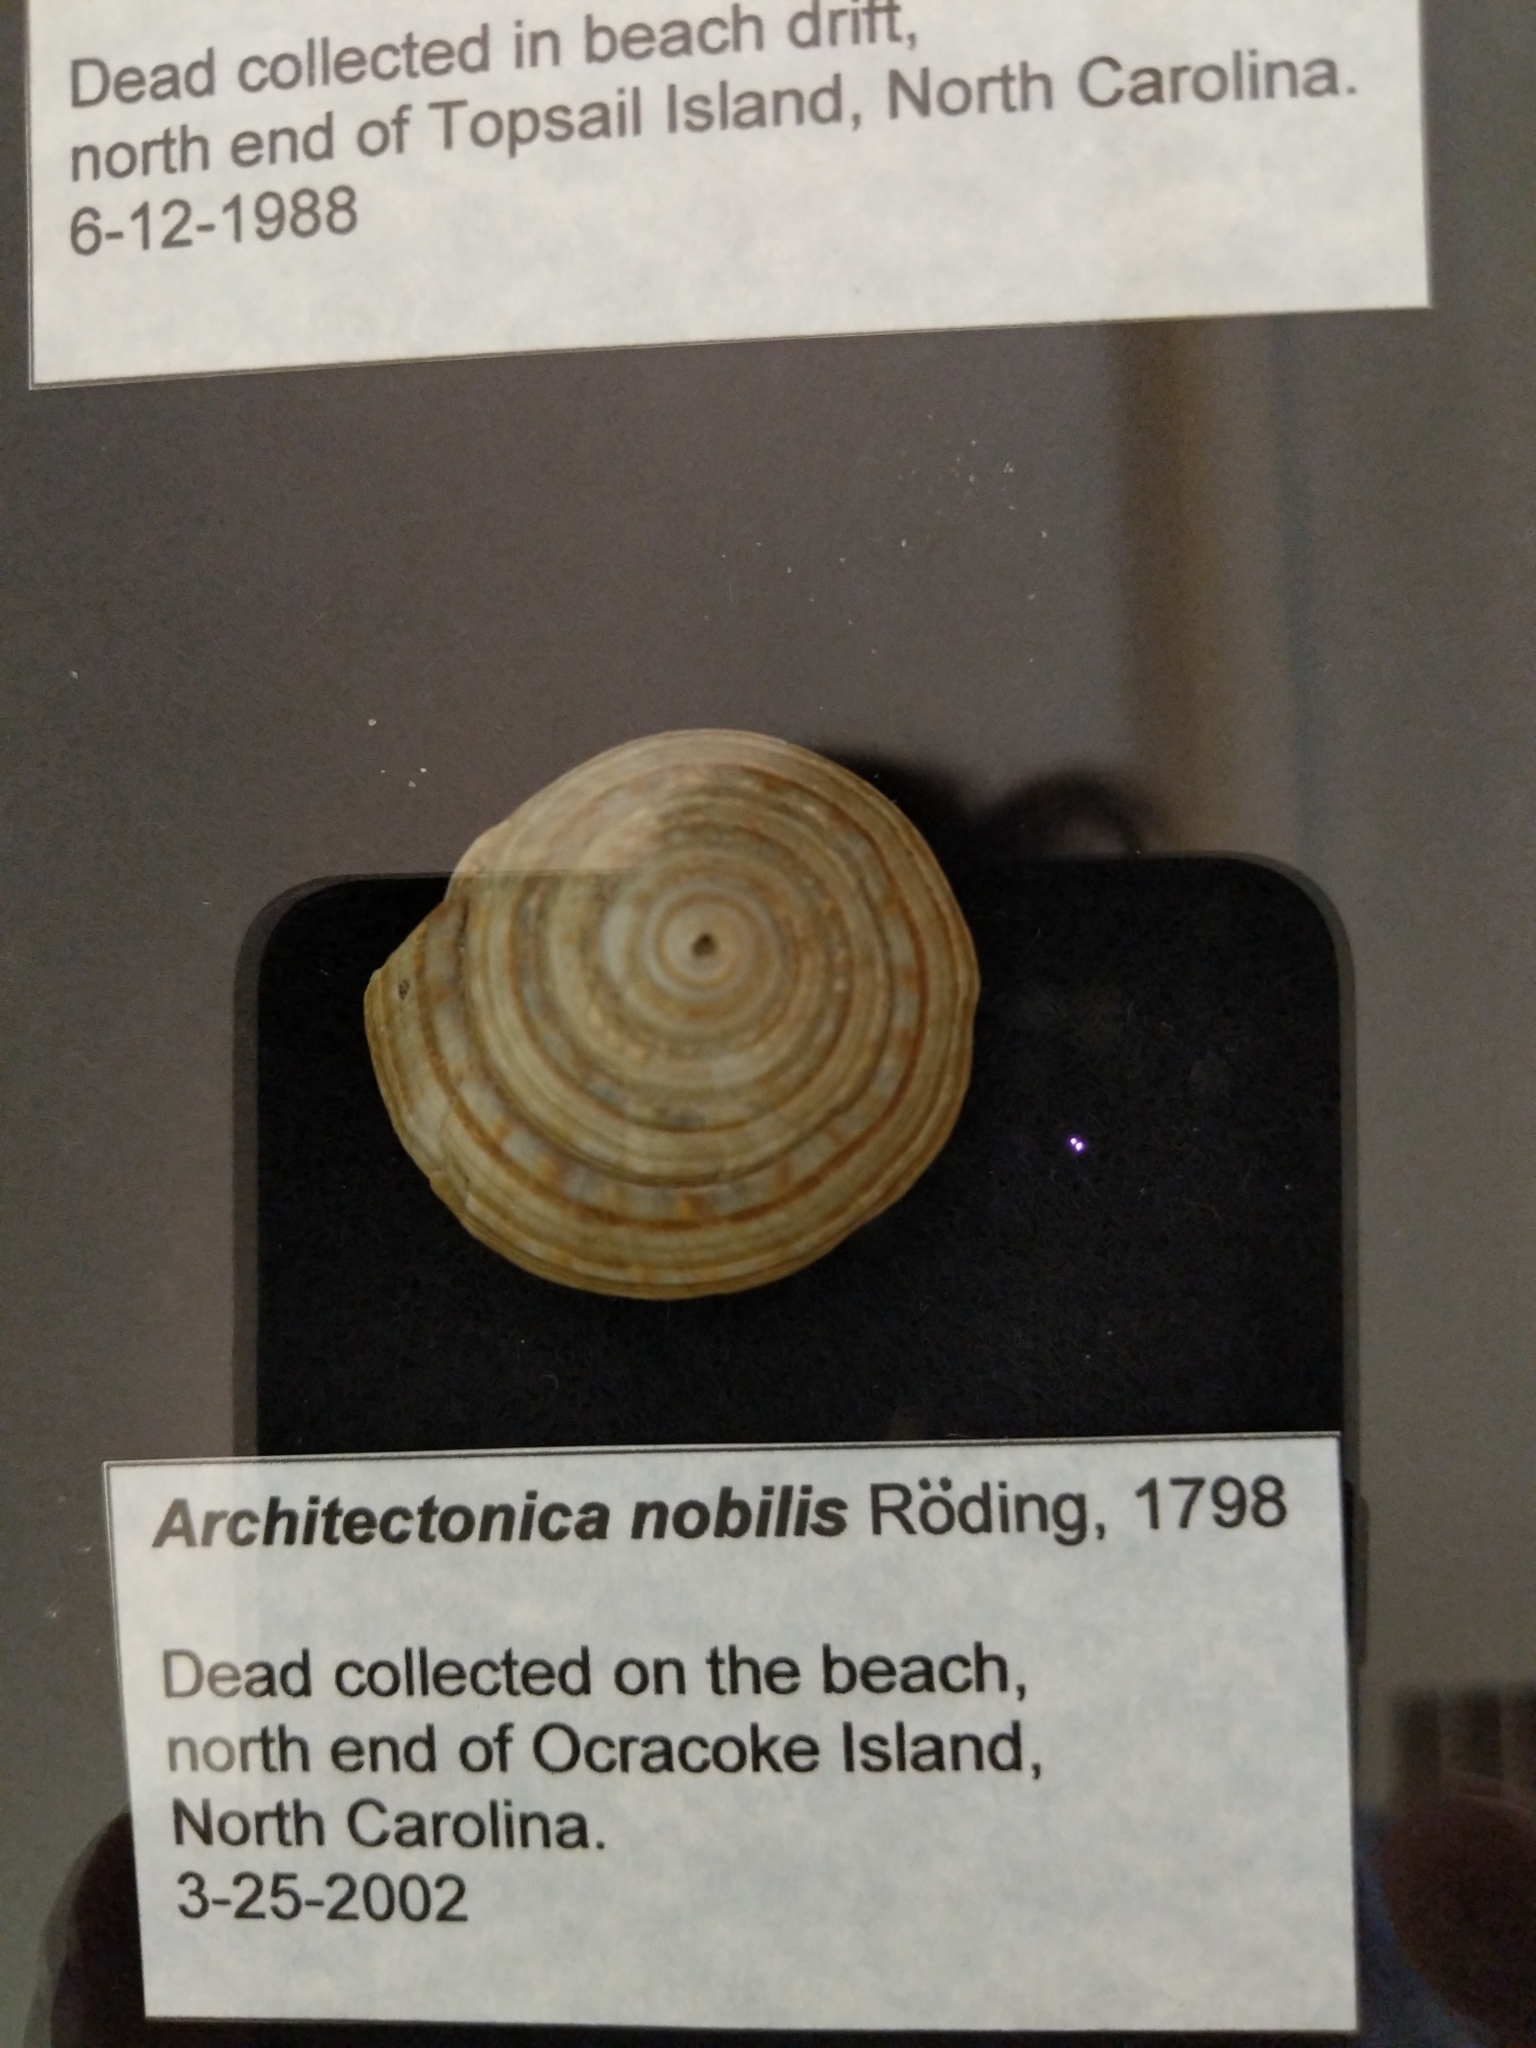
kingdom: Animalia
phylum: Mollusca
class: Gastropoda
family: Architectonicidae
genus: Architectonica
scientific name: Architectonica nobilis
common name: Common sundial
